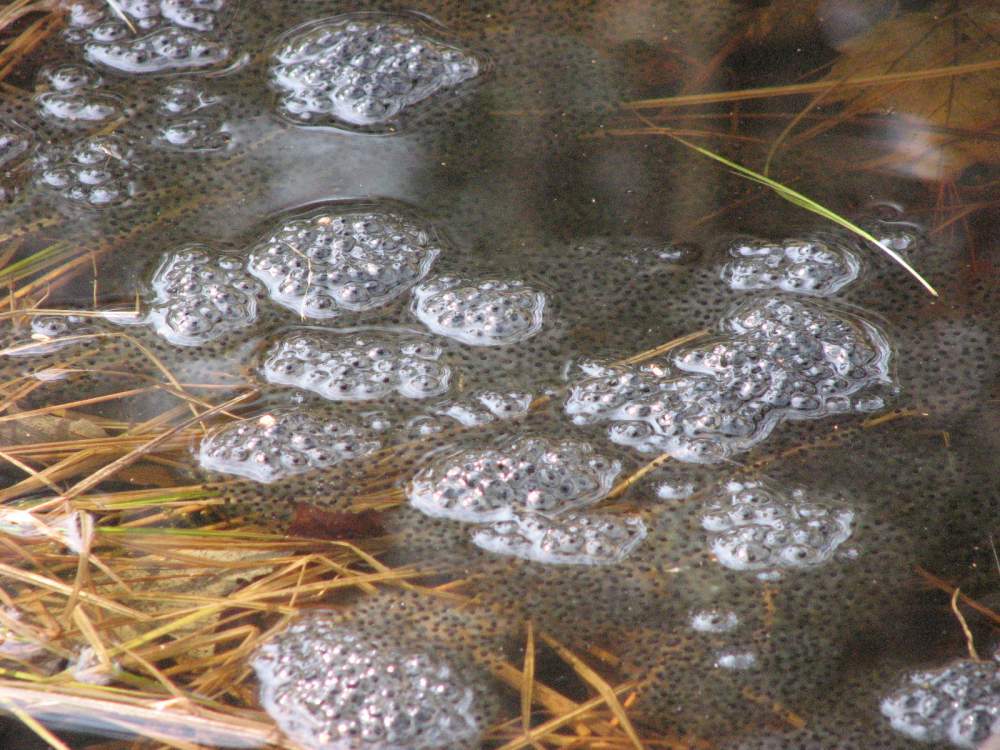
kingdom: Animalia
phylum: Chordata
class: Amphibia
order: Anura
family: Ranidae
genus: Lithobates
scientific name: Lithobates sylvaticus
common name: Wood frog
